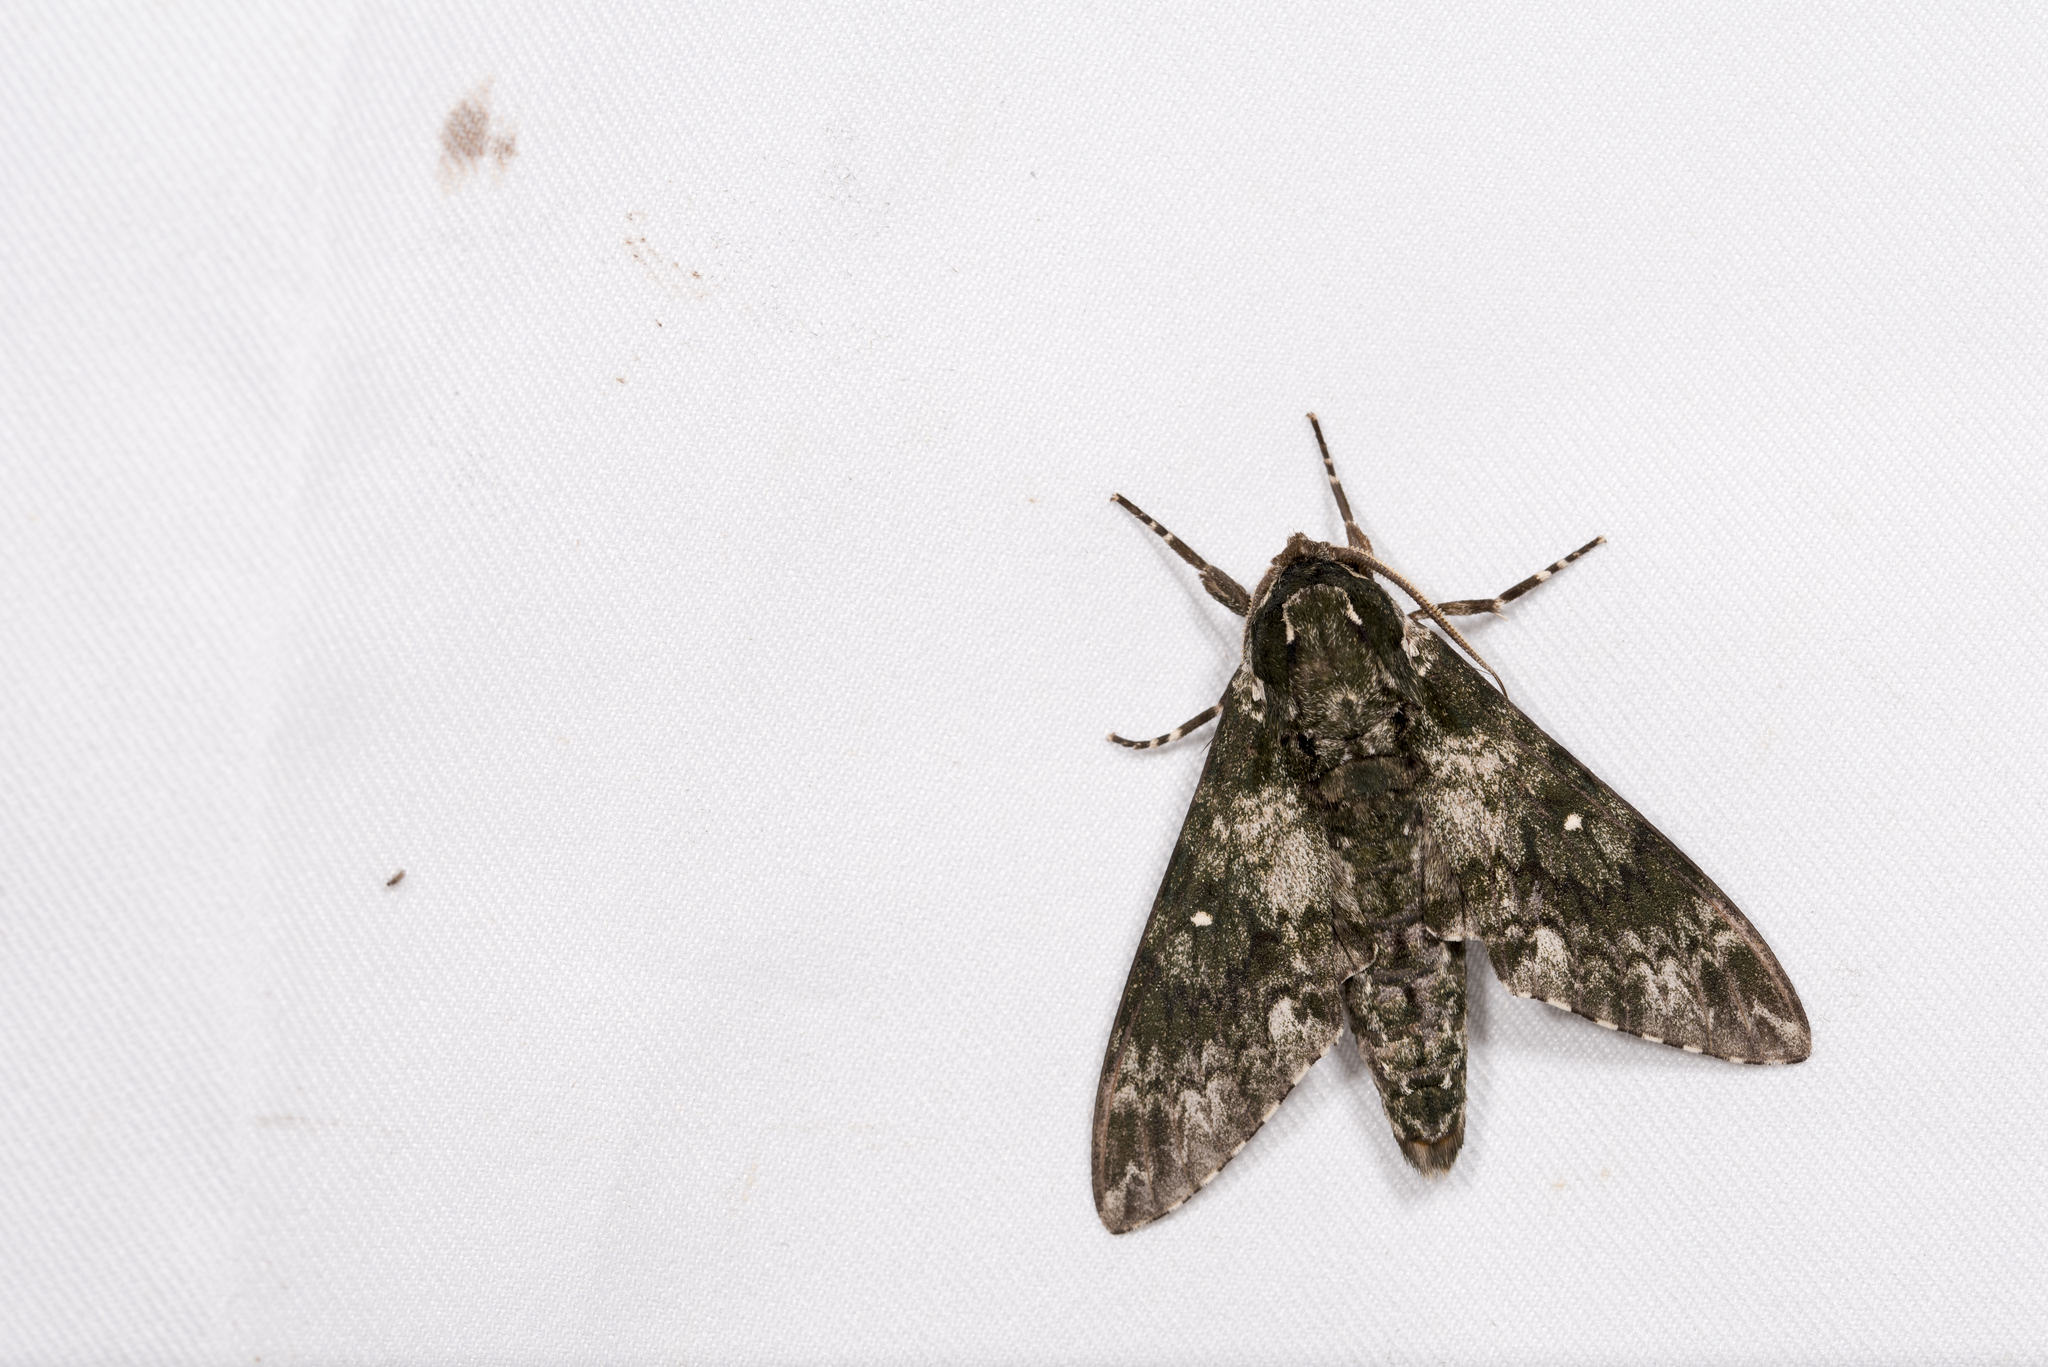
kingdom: Animalia
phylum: Arthropoda
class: Insecta
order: Lepidoptera
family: Sphingidae
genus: Dolbina
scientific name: Dolbina formosana
